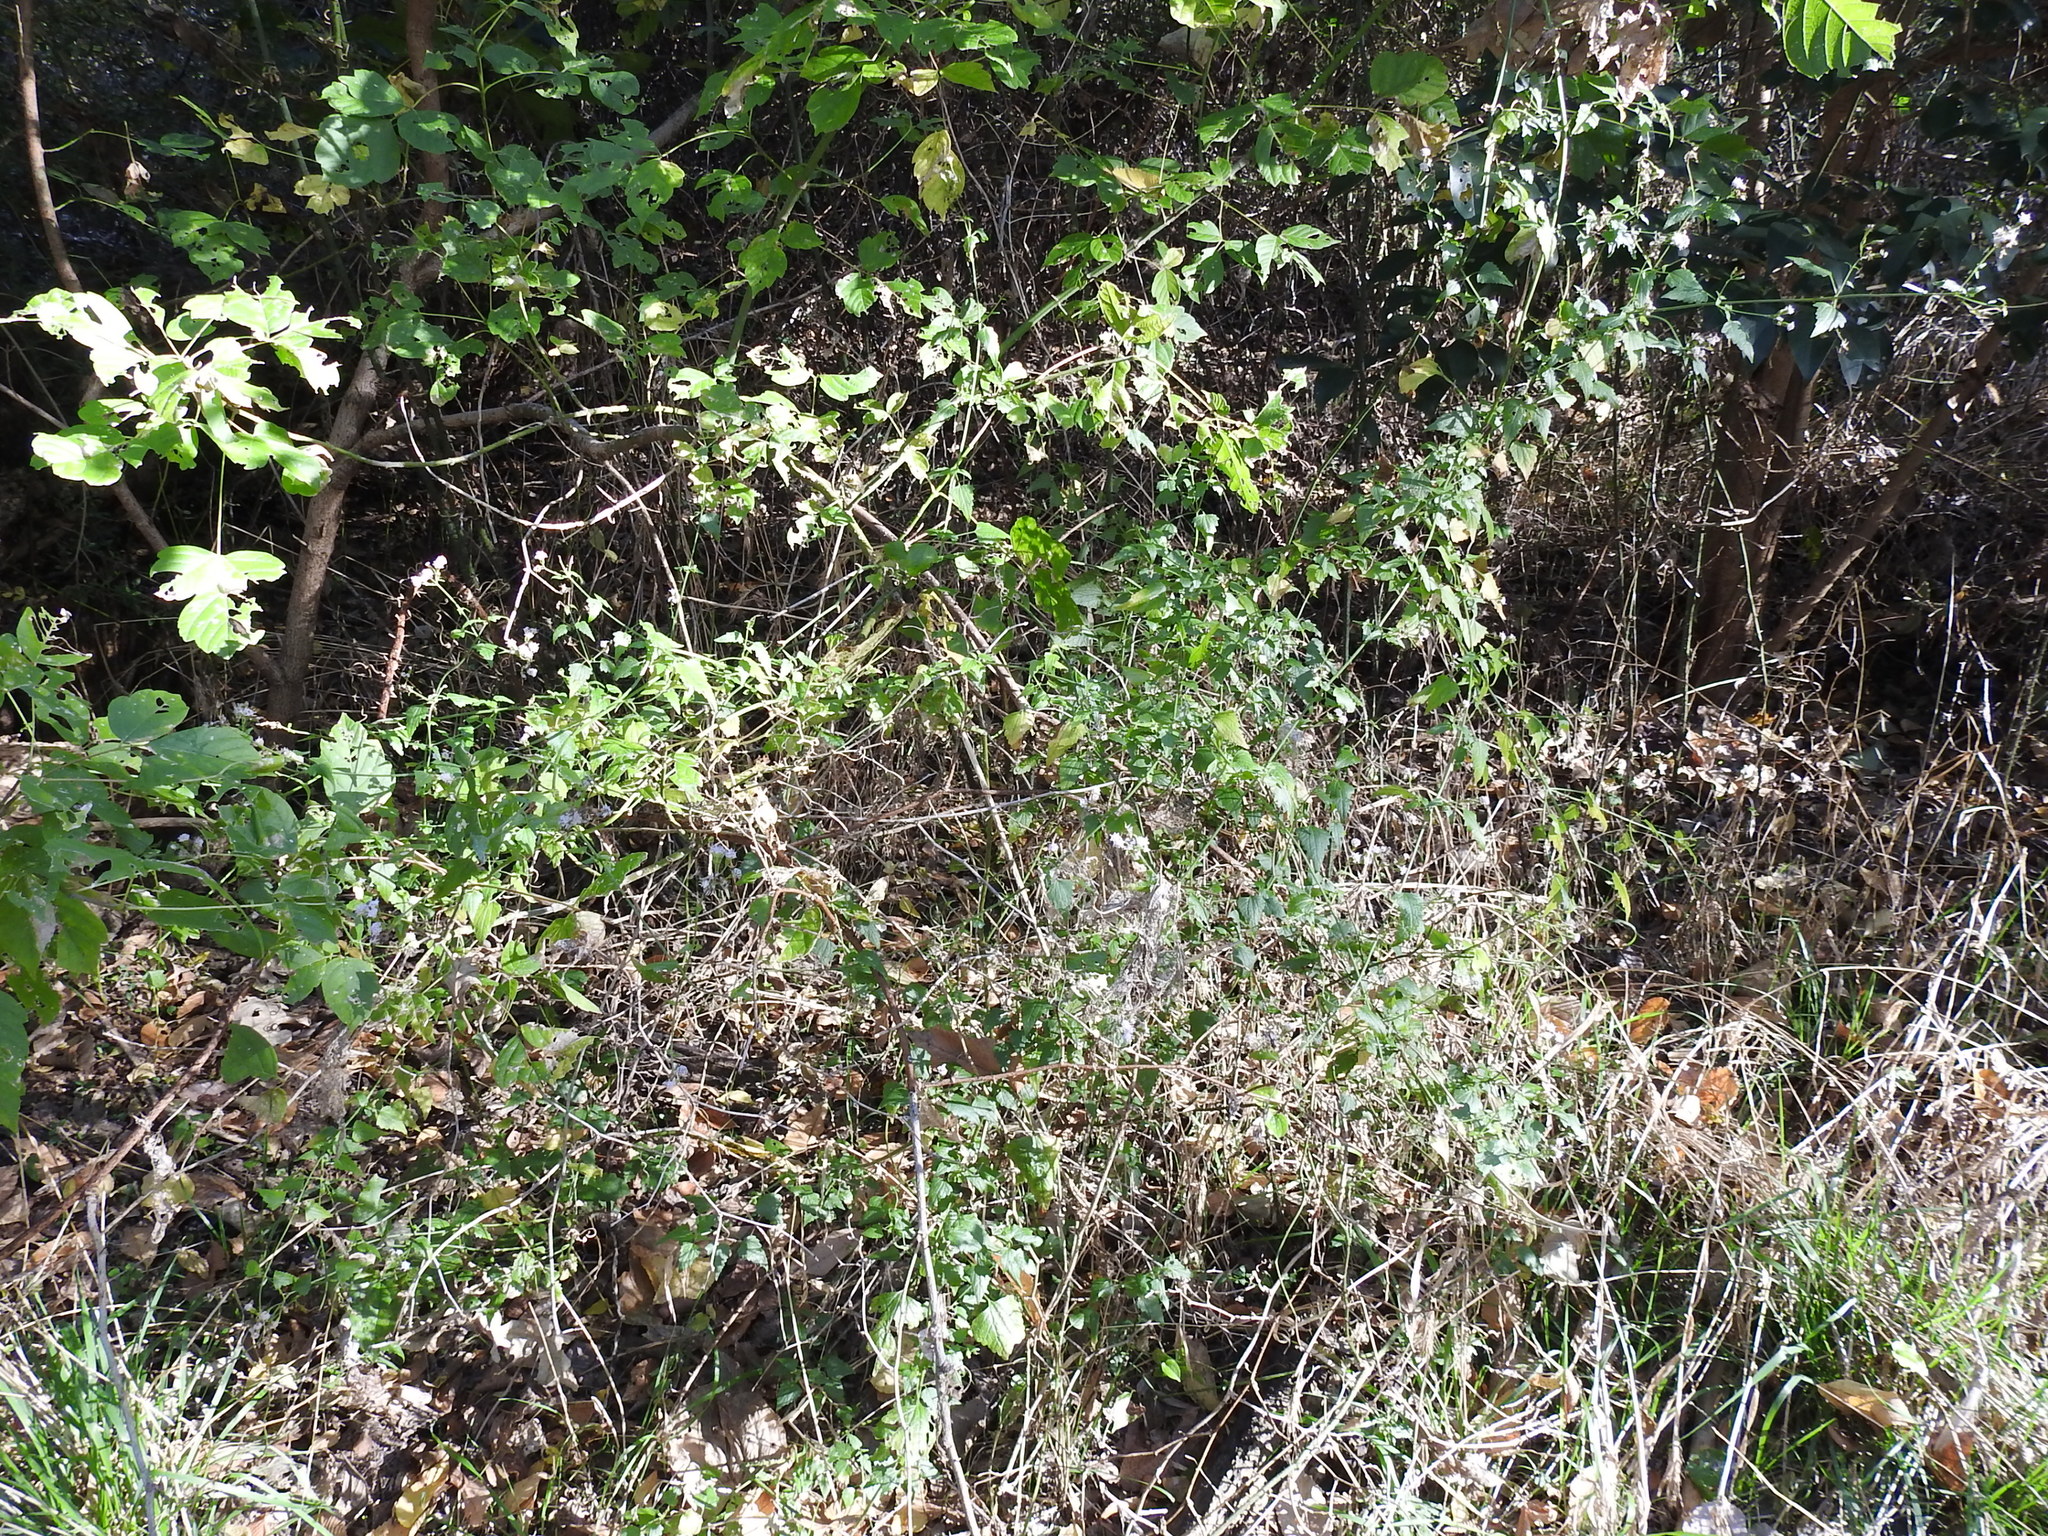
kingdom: Plantae
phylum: Tracheophyta
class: Magnoliopsida
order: Asterales
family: Asteraceae
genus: Fleischmannia
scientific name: Fleischmannia incarnata
